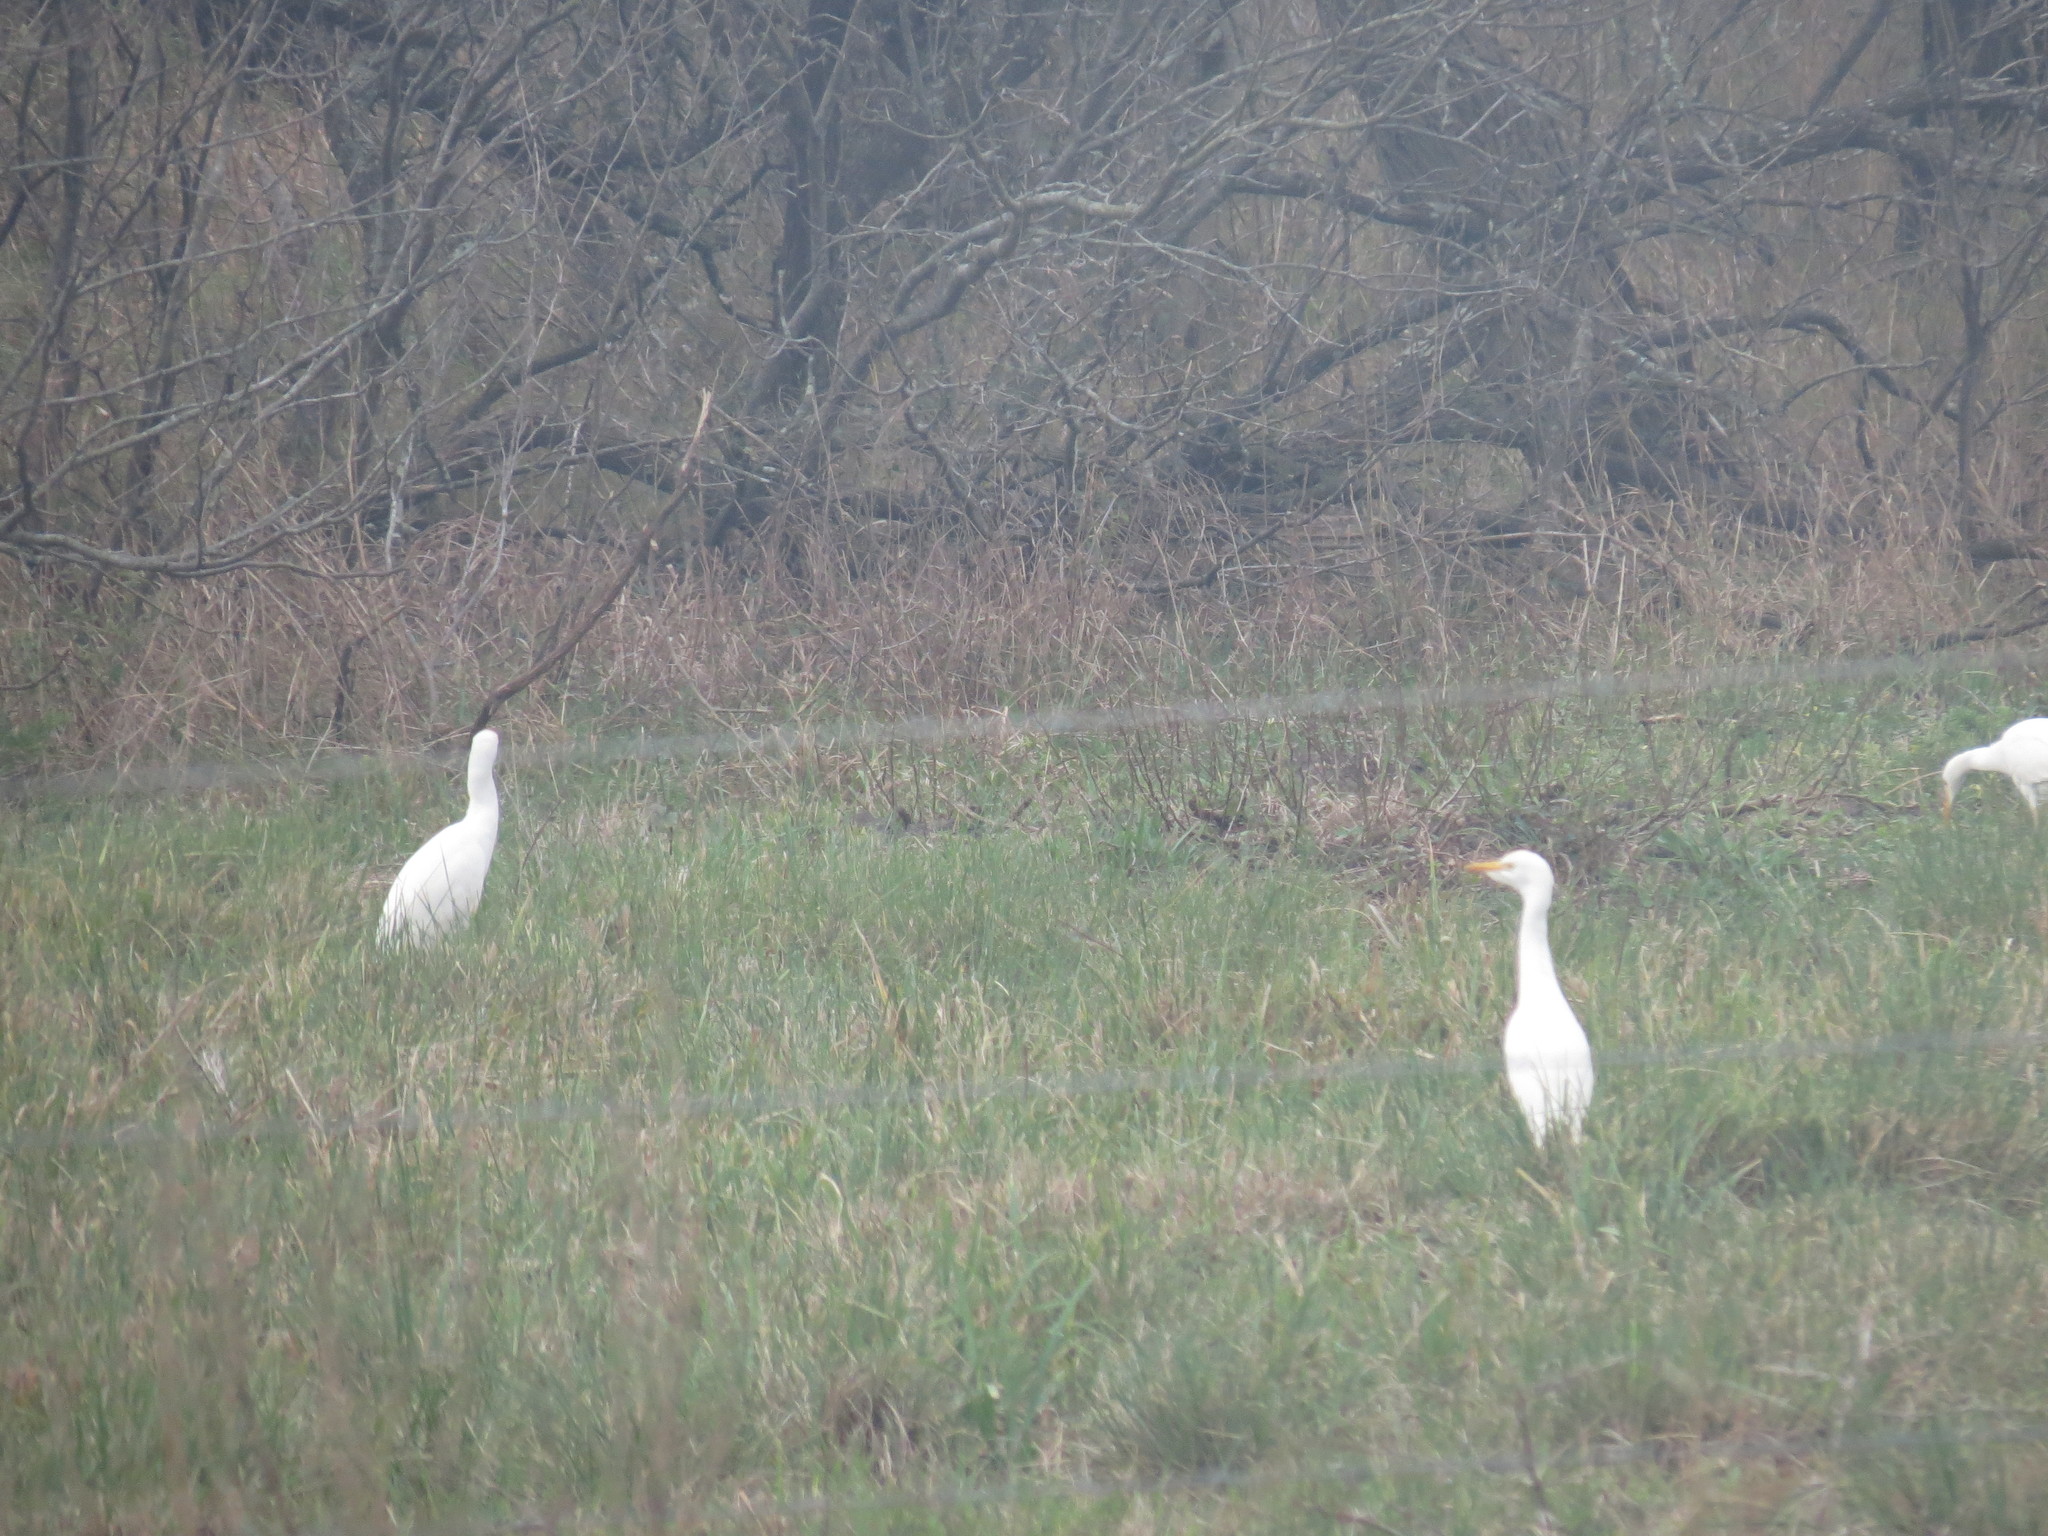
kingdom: Animalia
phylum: Chordata
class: Aves
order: Pelecaniformes
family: Ardeidae
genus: Bubulcus
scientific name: Bubulcus ibis
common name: Cattle egret
